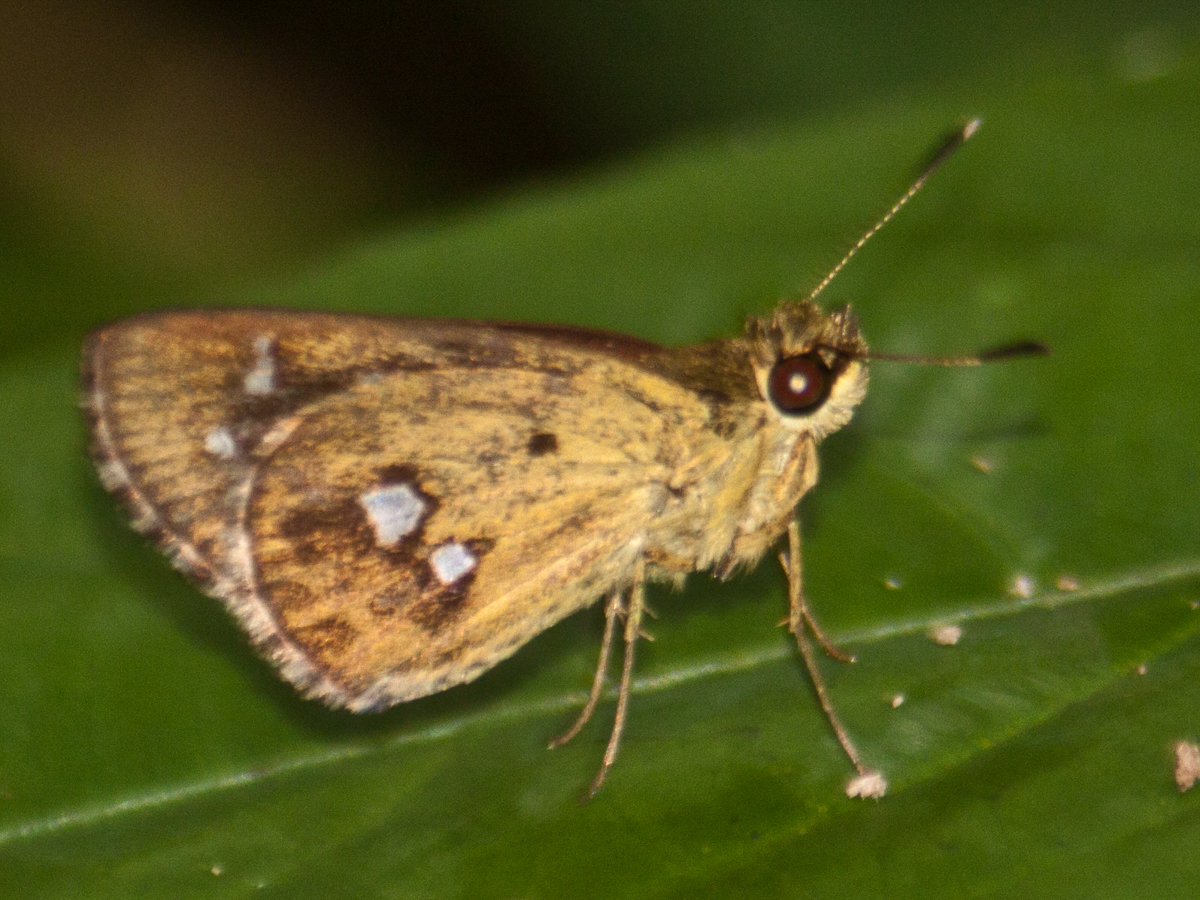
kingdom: Animalia
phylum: Arthropoda
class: Insecta
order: Lepidoptera
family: Hesperiidae
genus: Scobura
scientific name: Scobura isota
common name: Swinhoe's forest bob
